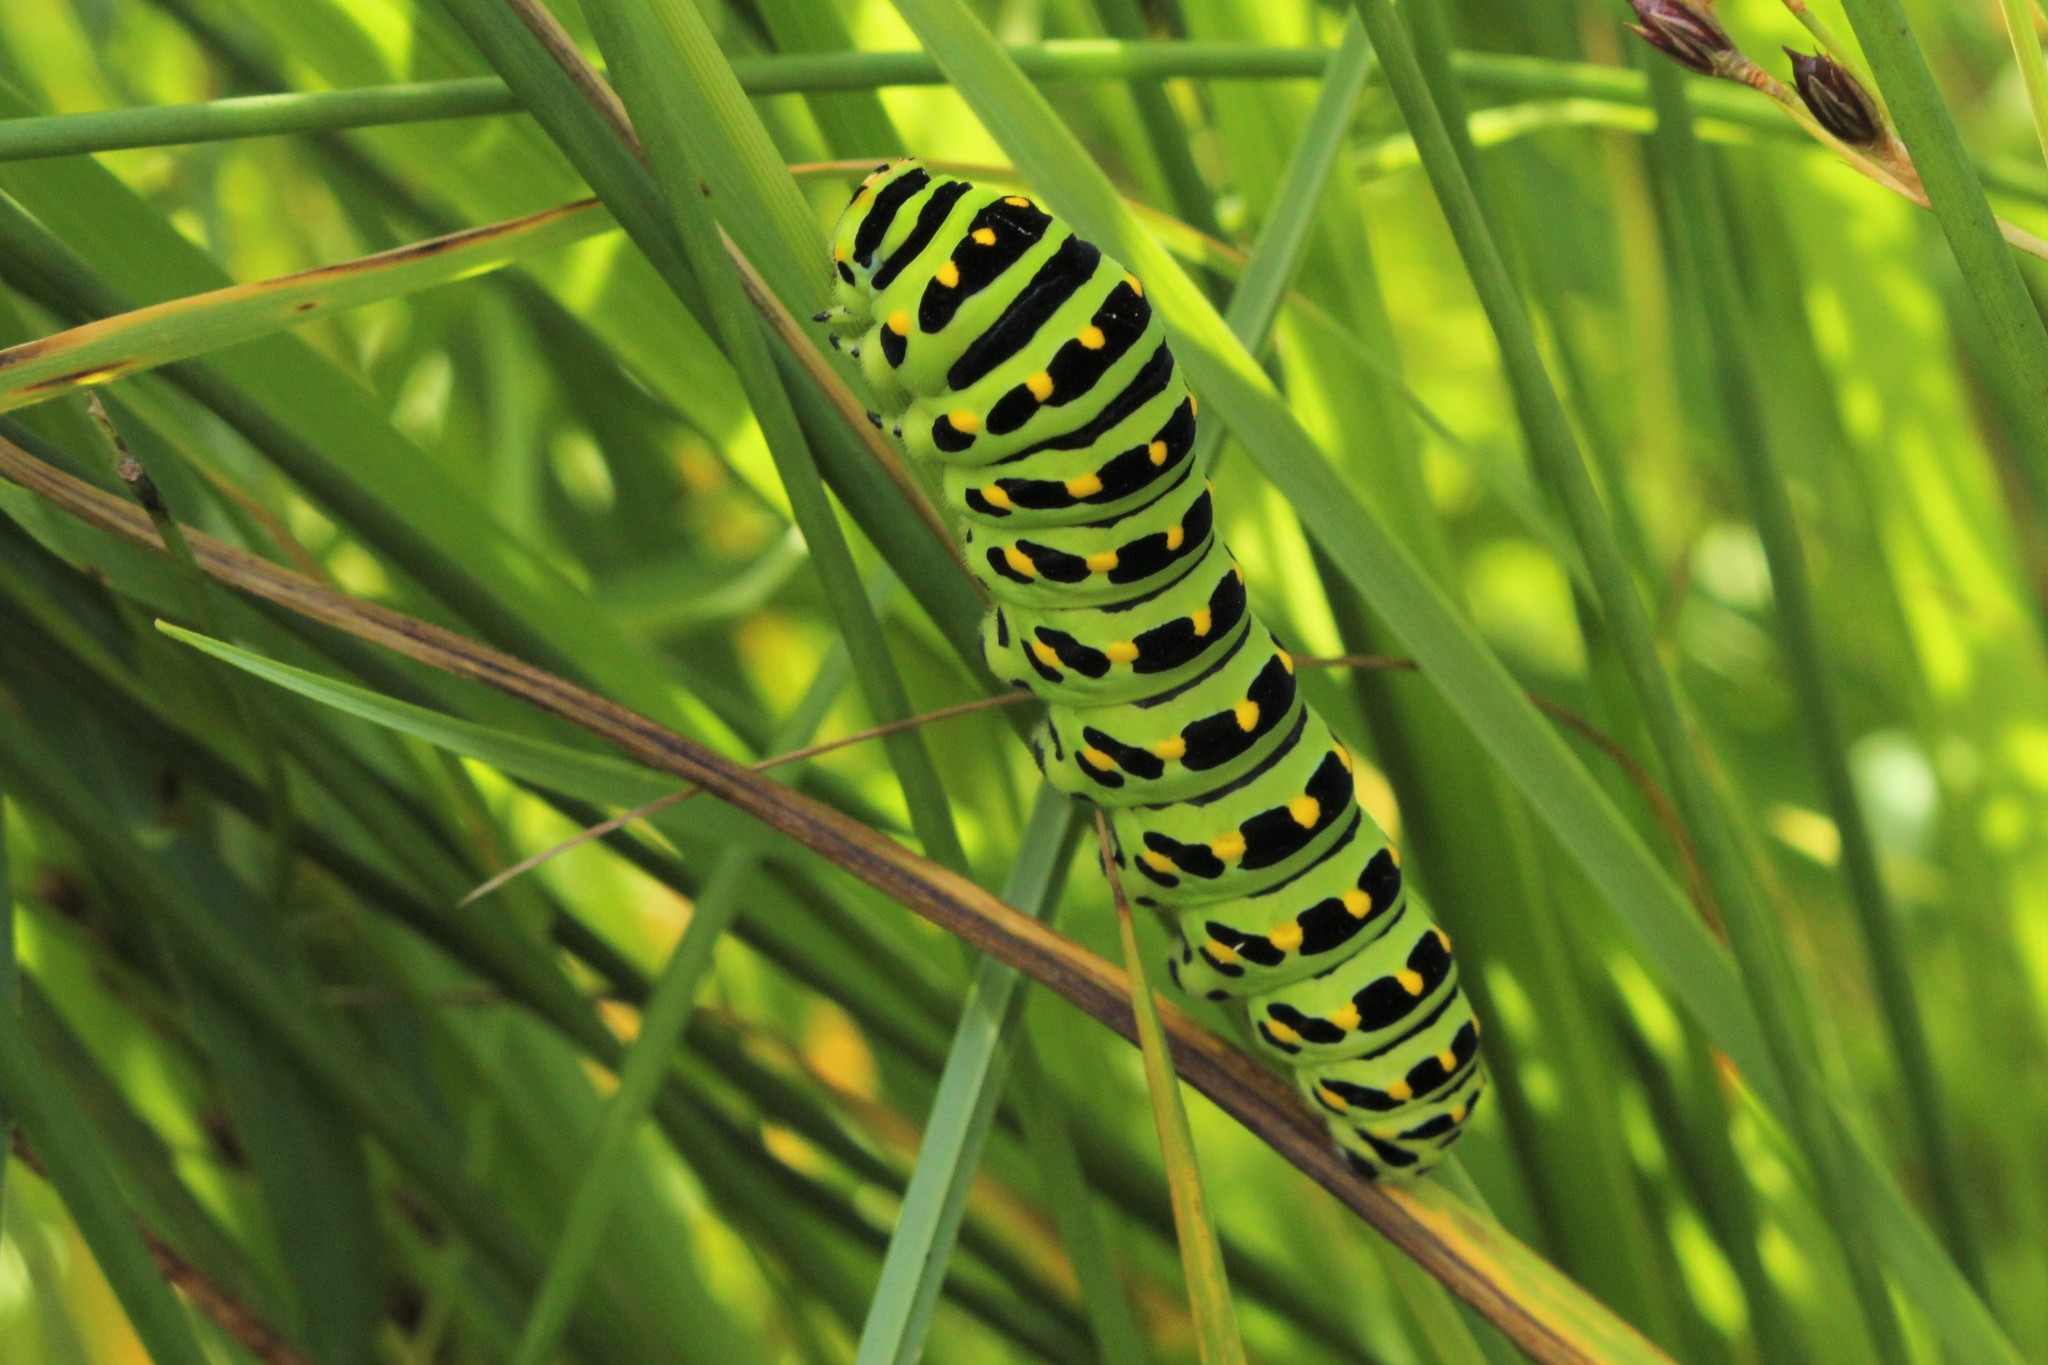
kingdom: Animalia
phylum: Arthropoda
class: Insecta
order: Lepidoptera
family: Papilionidae
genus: Papilio
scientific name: Papilio machaon
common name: Swallowtail
